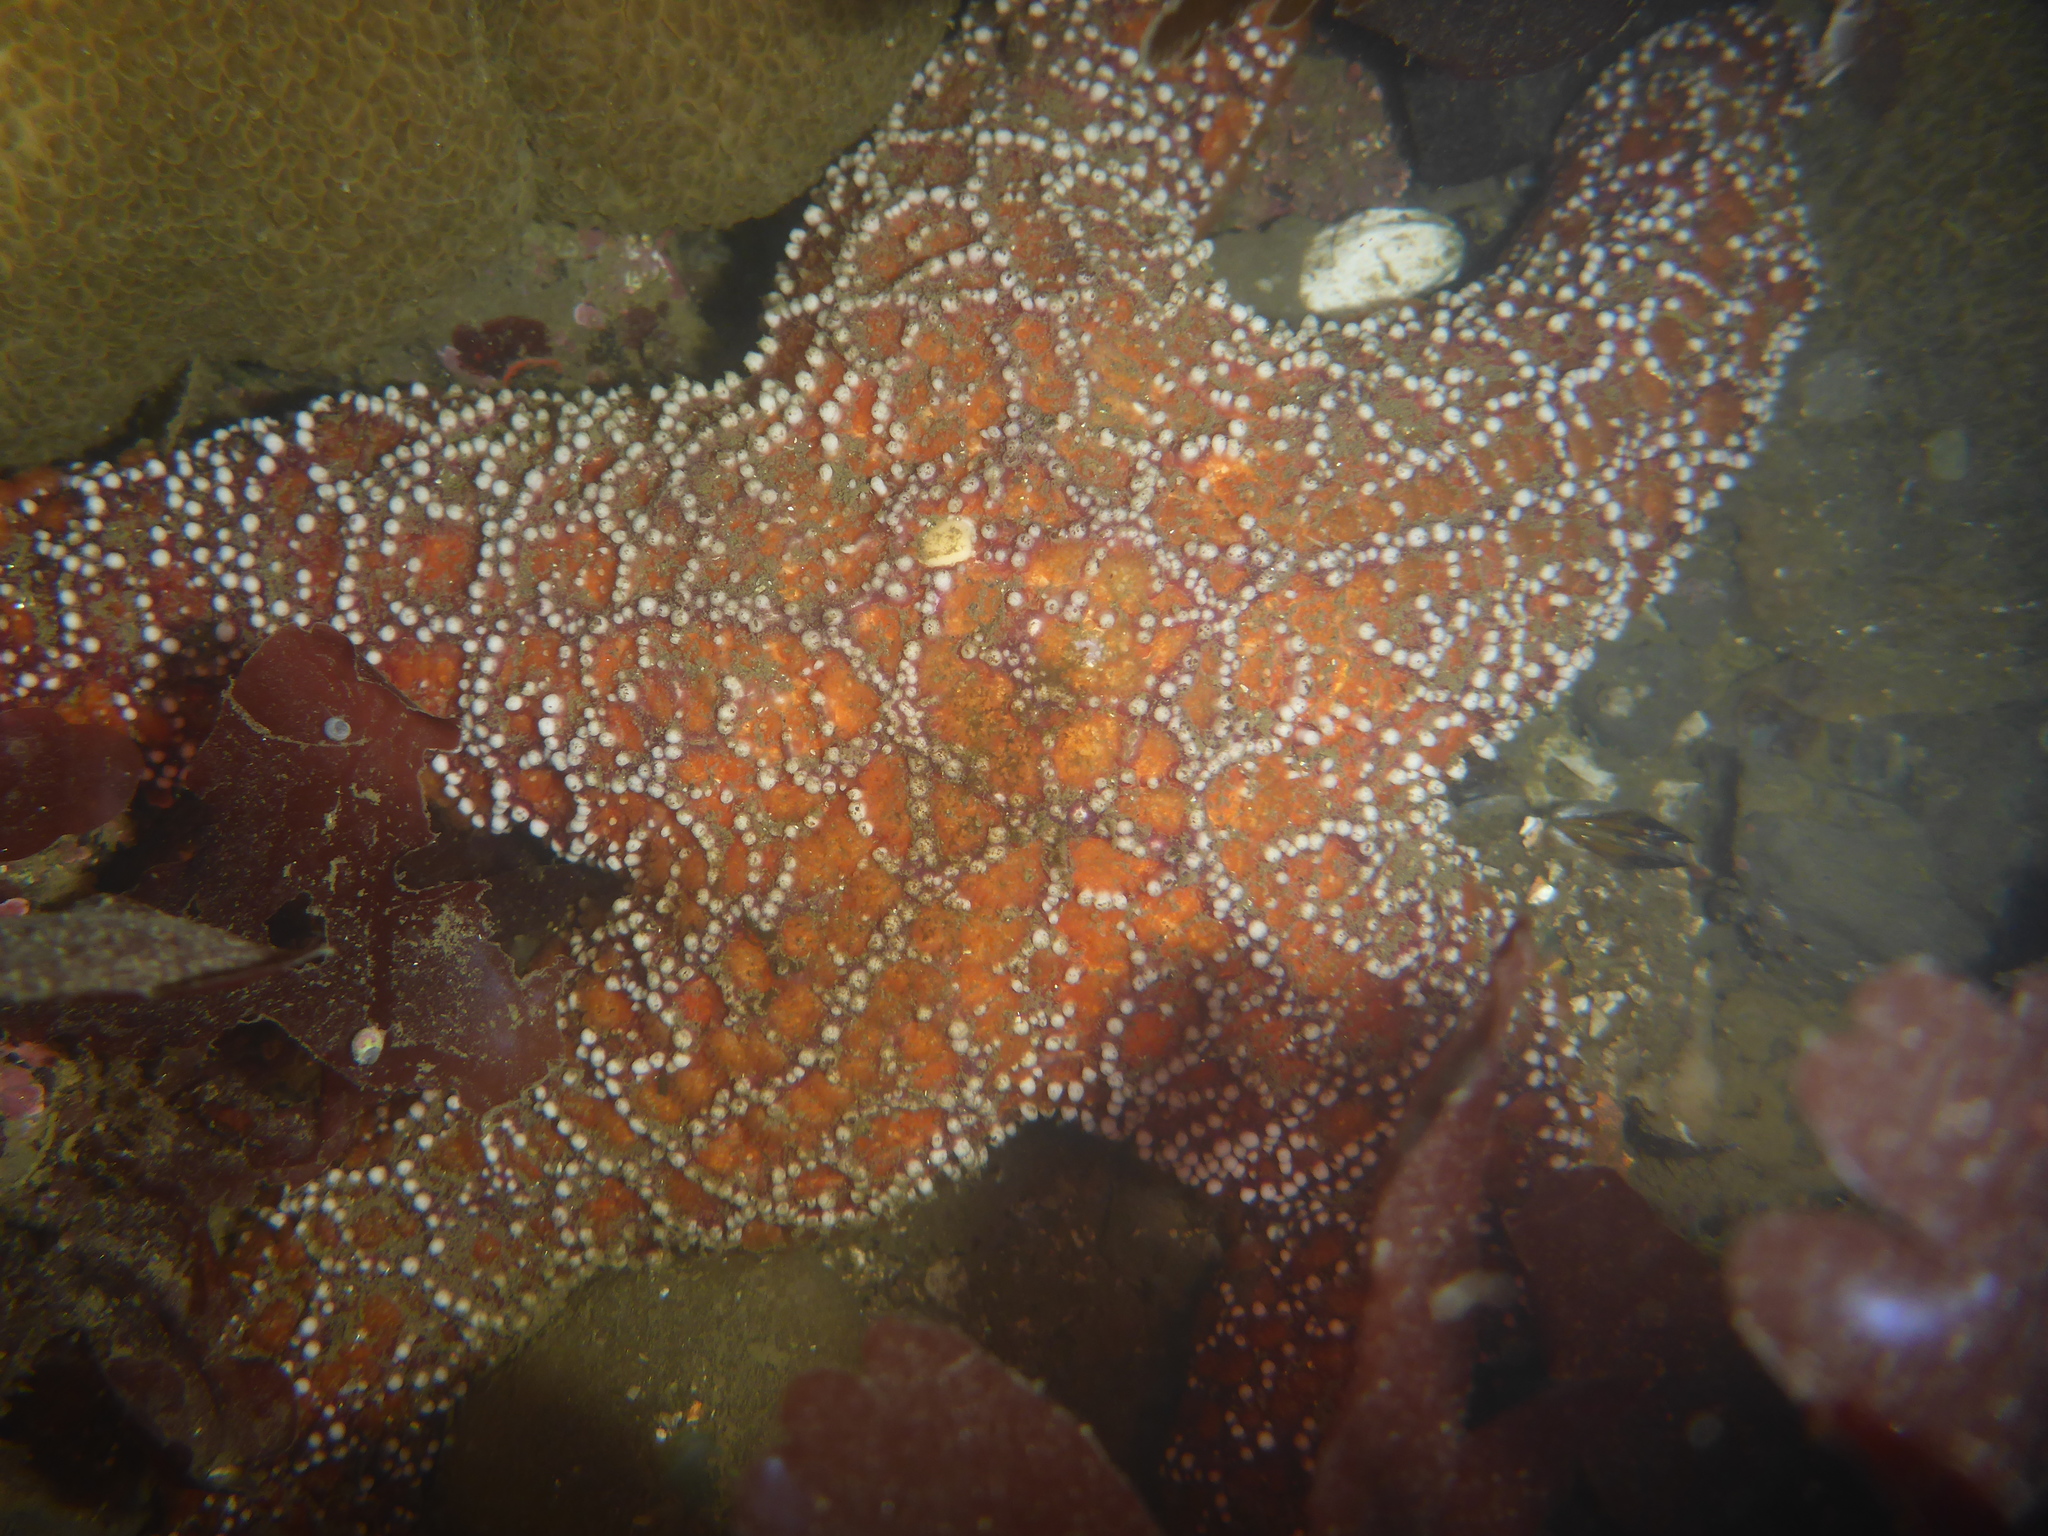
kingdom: Animalia
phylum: Echinodermata
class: Asteroidea
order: Forcipulatida
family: Asteriidae
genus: Pisaster
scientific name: Pisaster ochraceus
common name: Ochre stars
